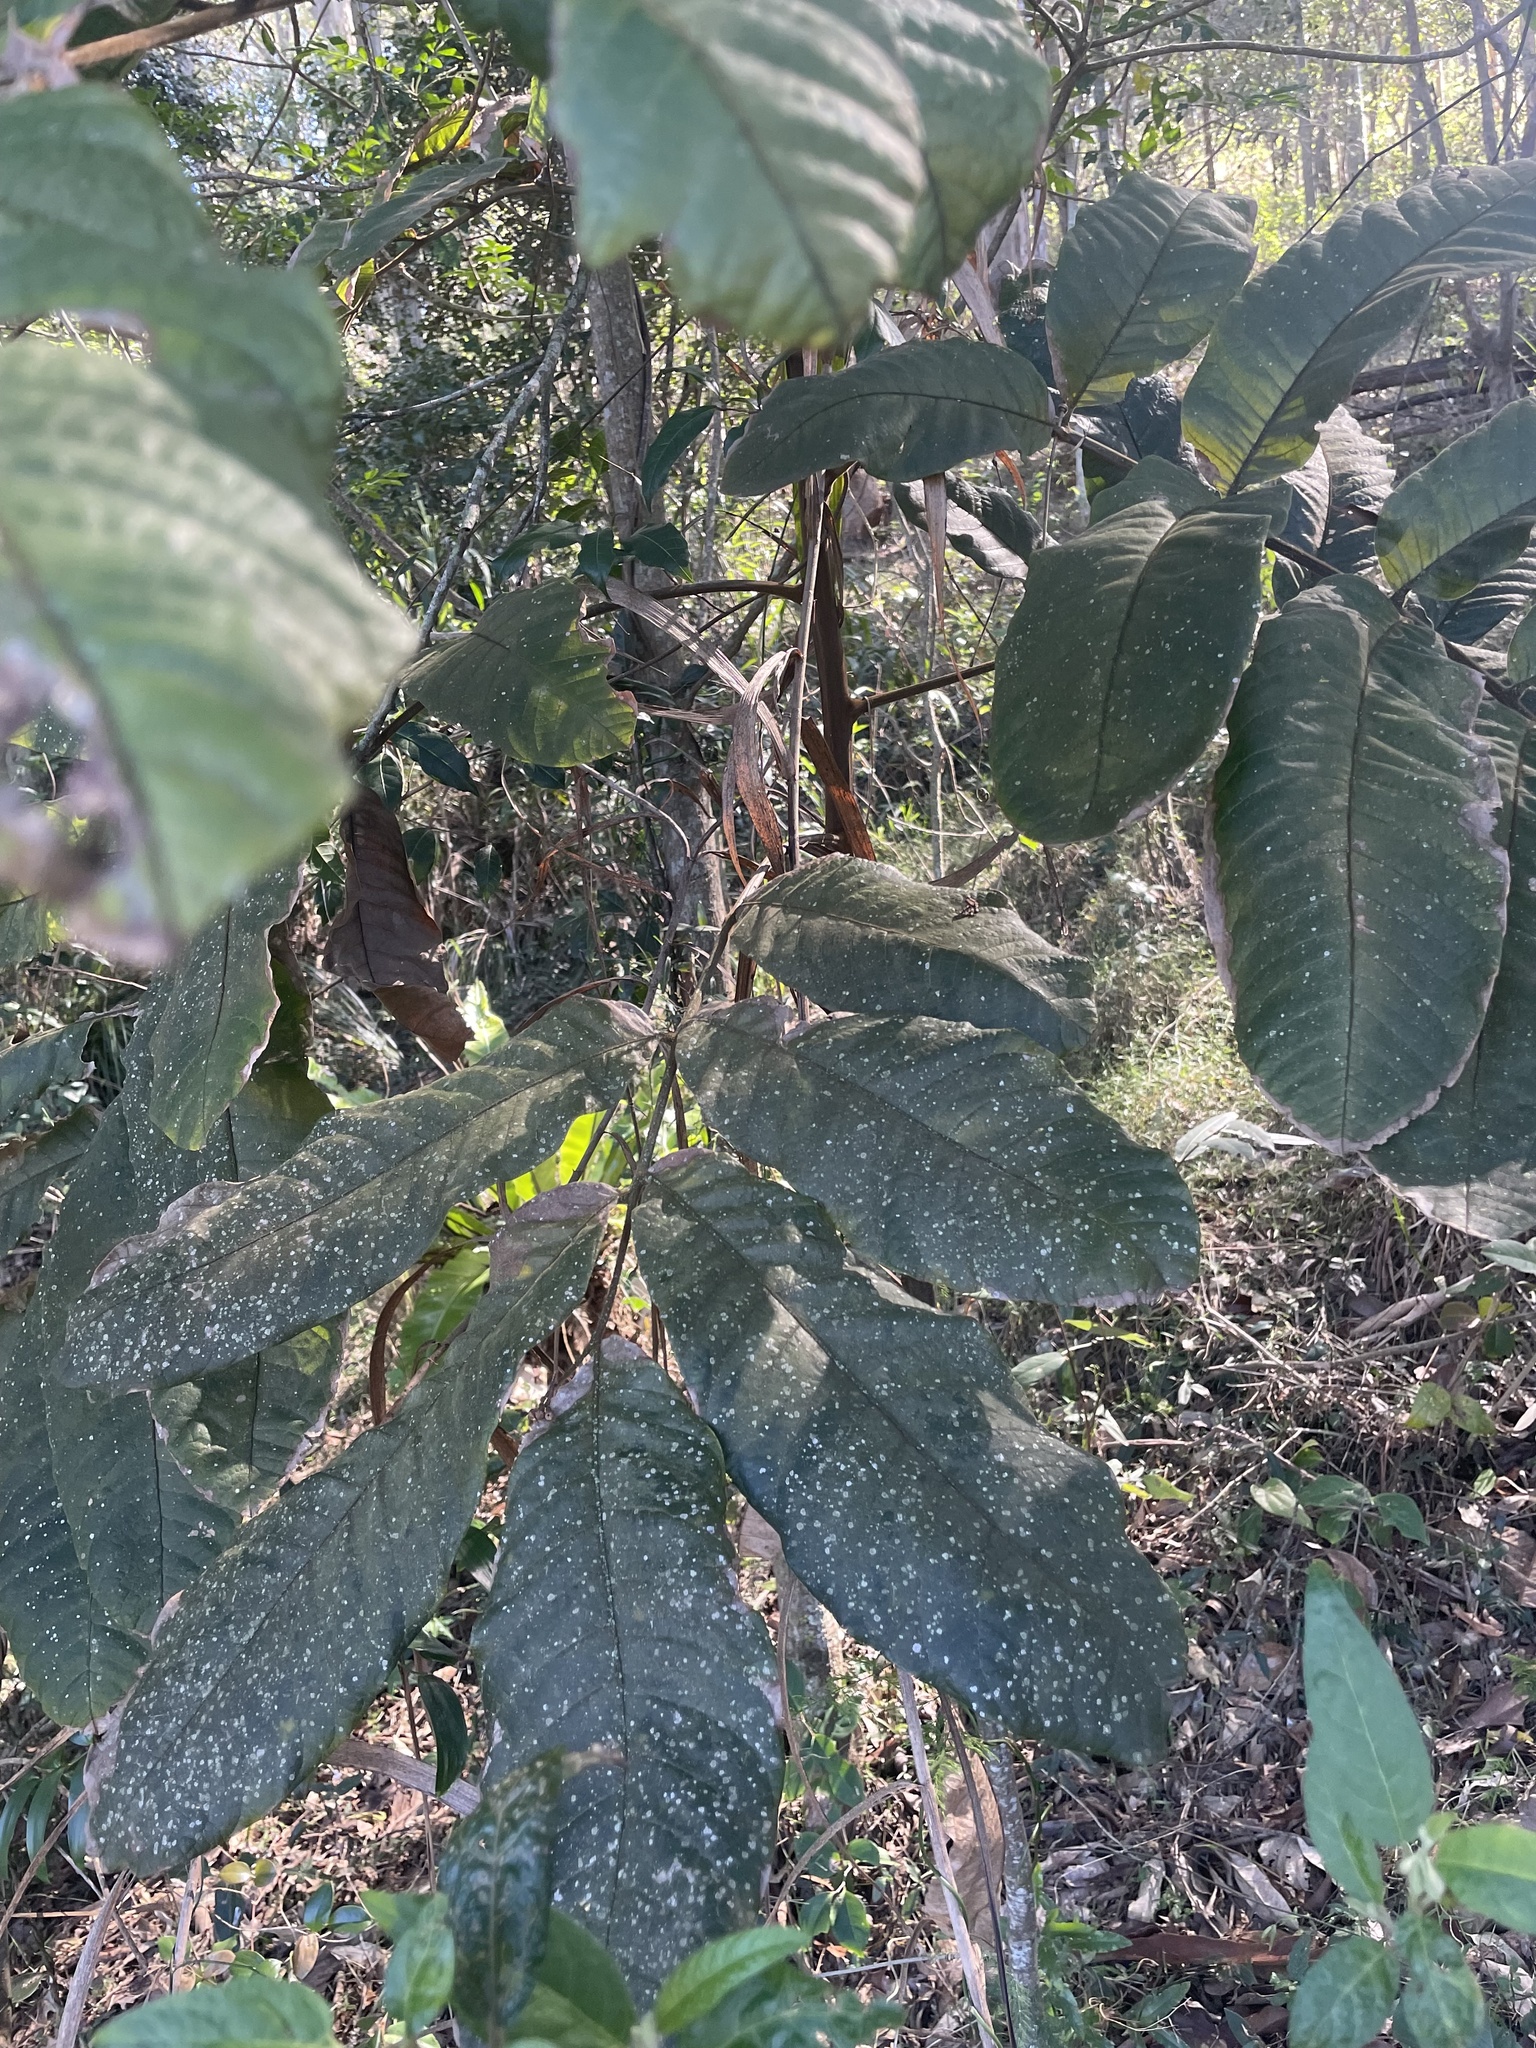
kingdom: Plantae
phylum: Tracheophyta
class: Magnoliopsida
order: Sapindales
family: Sapindaceae
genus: Diploglottis
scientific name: Diploglottis australis
